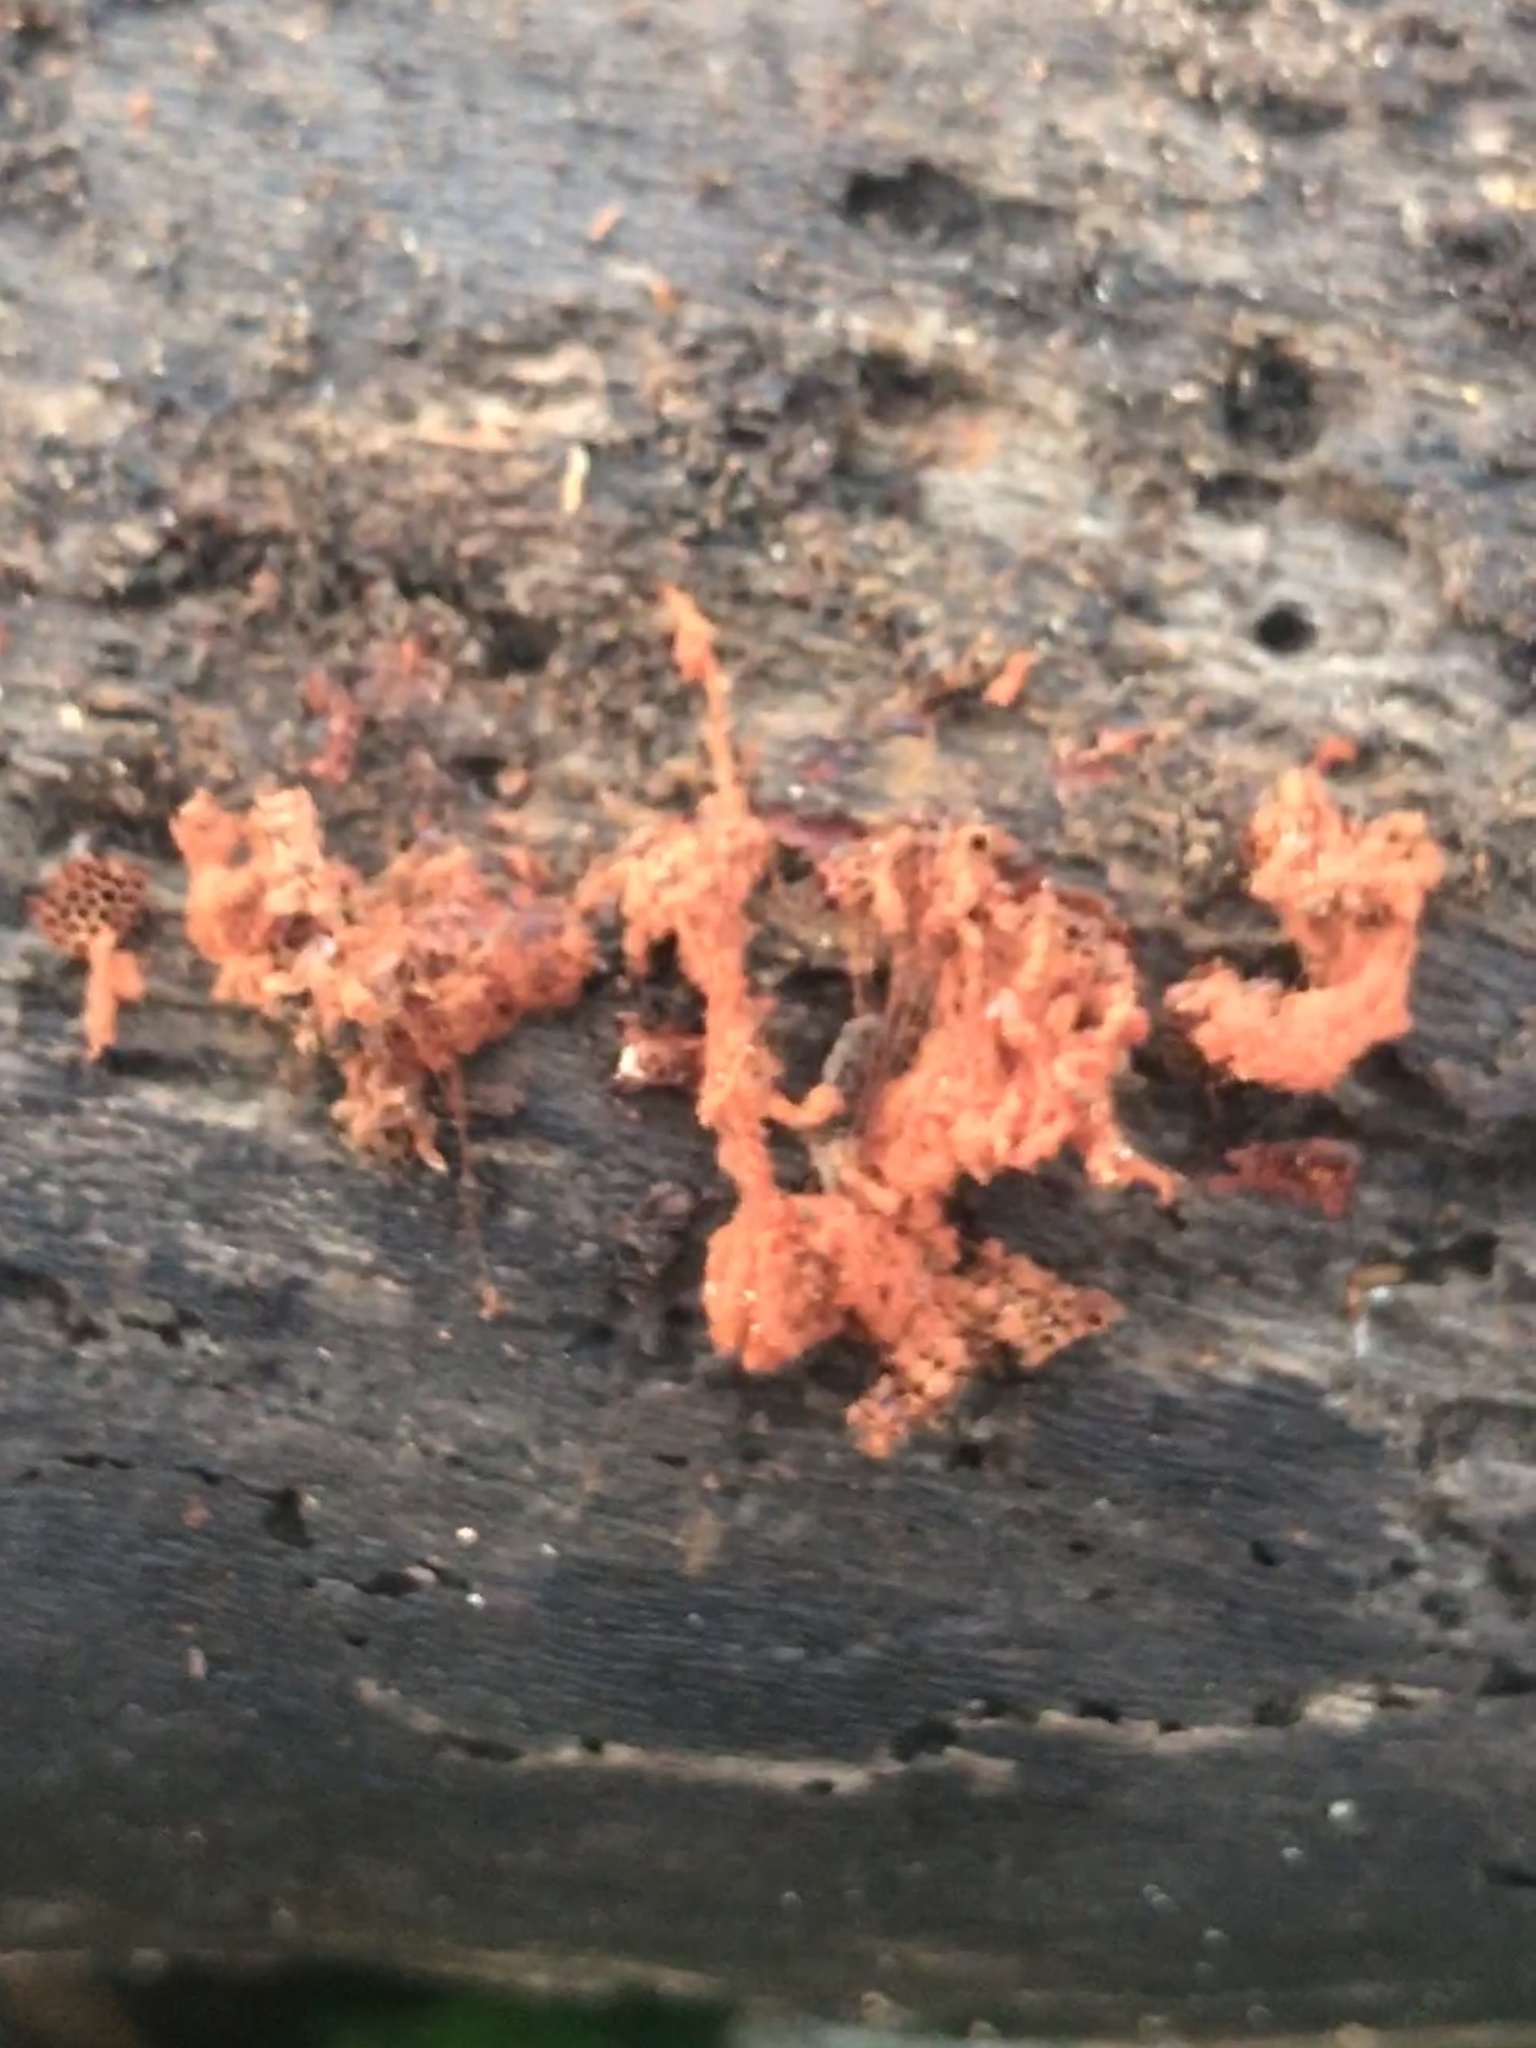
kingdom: Protozoa
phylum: Mycetozoa
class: Myxomycetes
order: Trichiales
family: Trichiaceae
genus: Metatrichia
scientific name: Metatrichia vesparia
